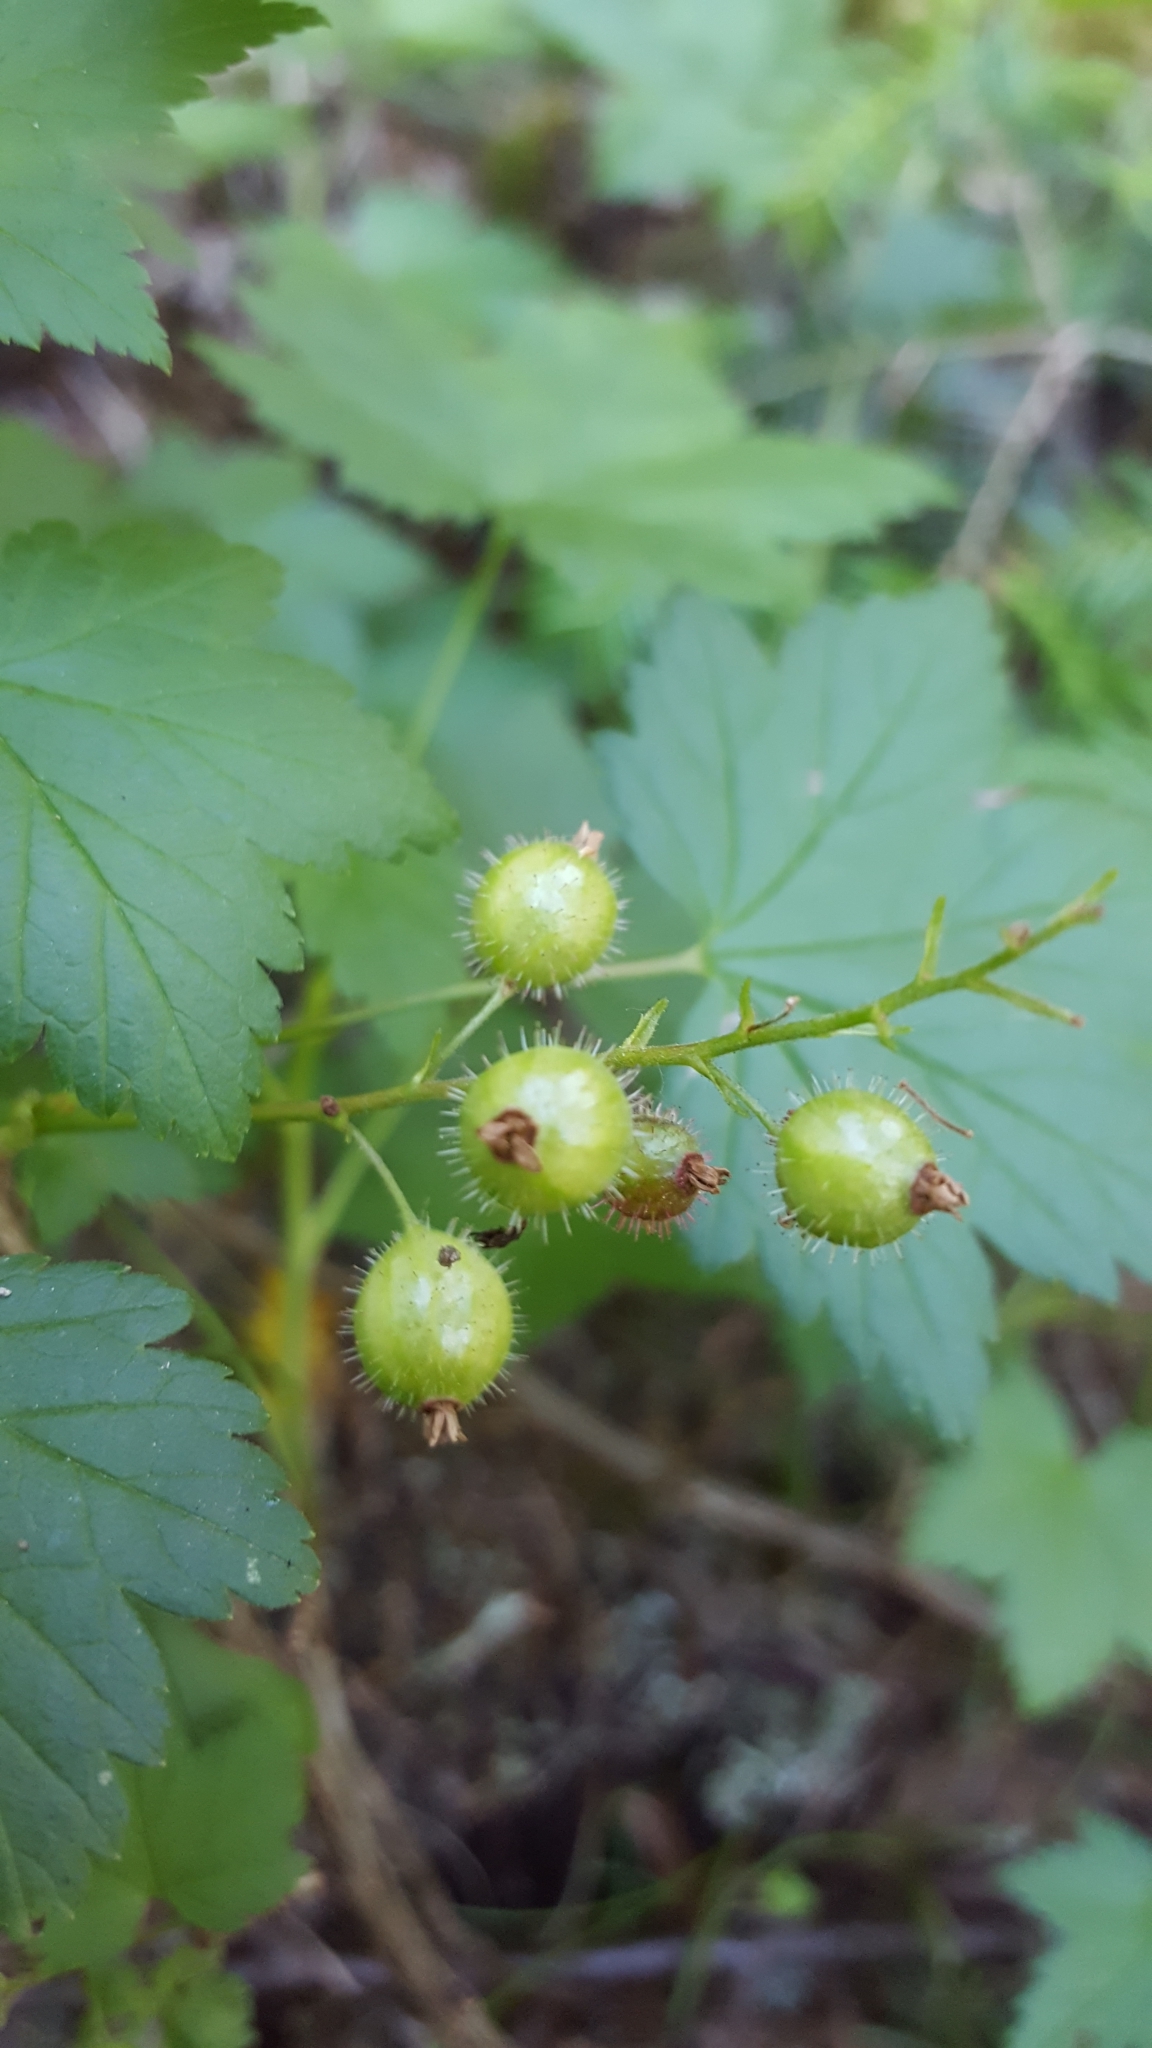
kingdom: Plantae
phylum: Tracheophyta
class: Magnoliopsida
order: Saxifragales
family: Grossulariaceae
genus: Ribes
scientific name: Ribes glandulosum
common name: Skunk currant
